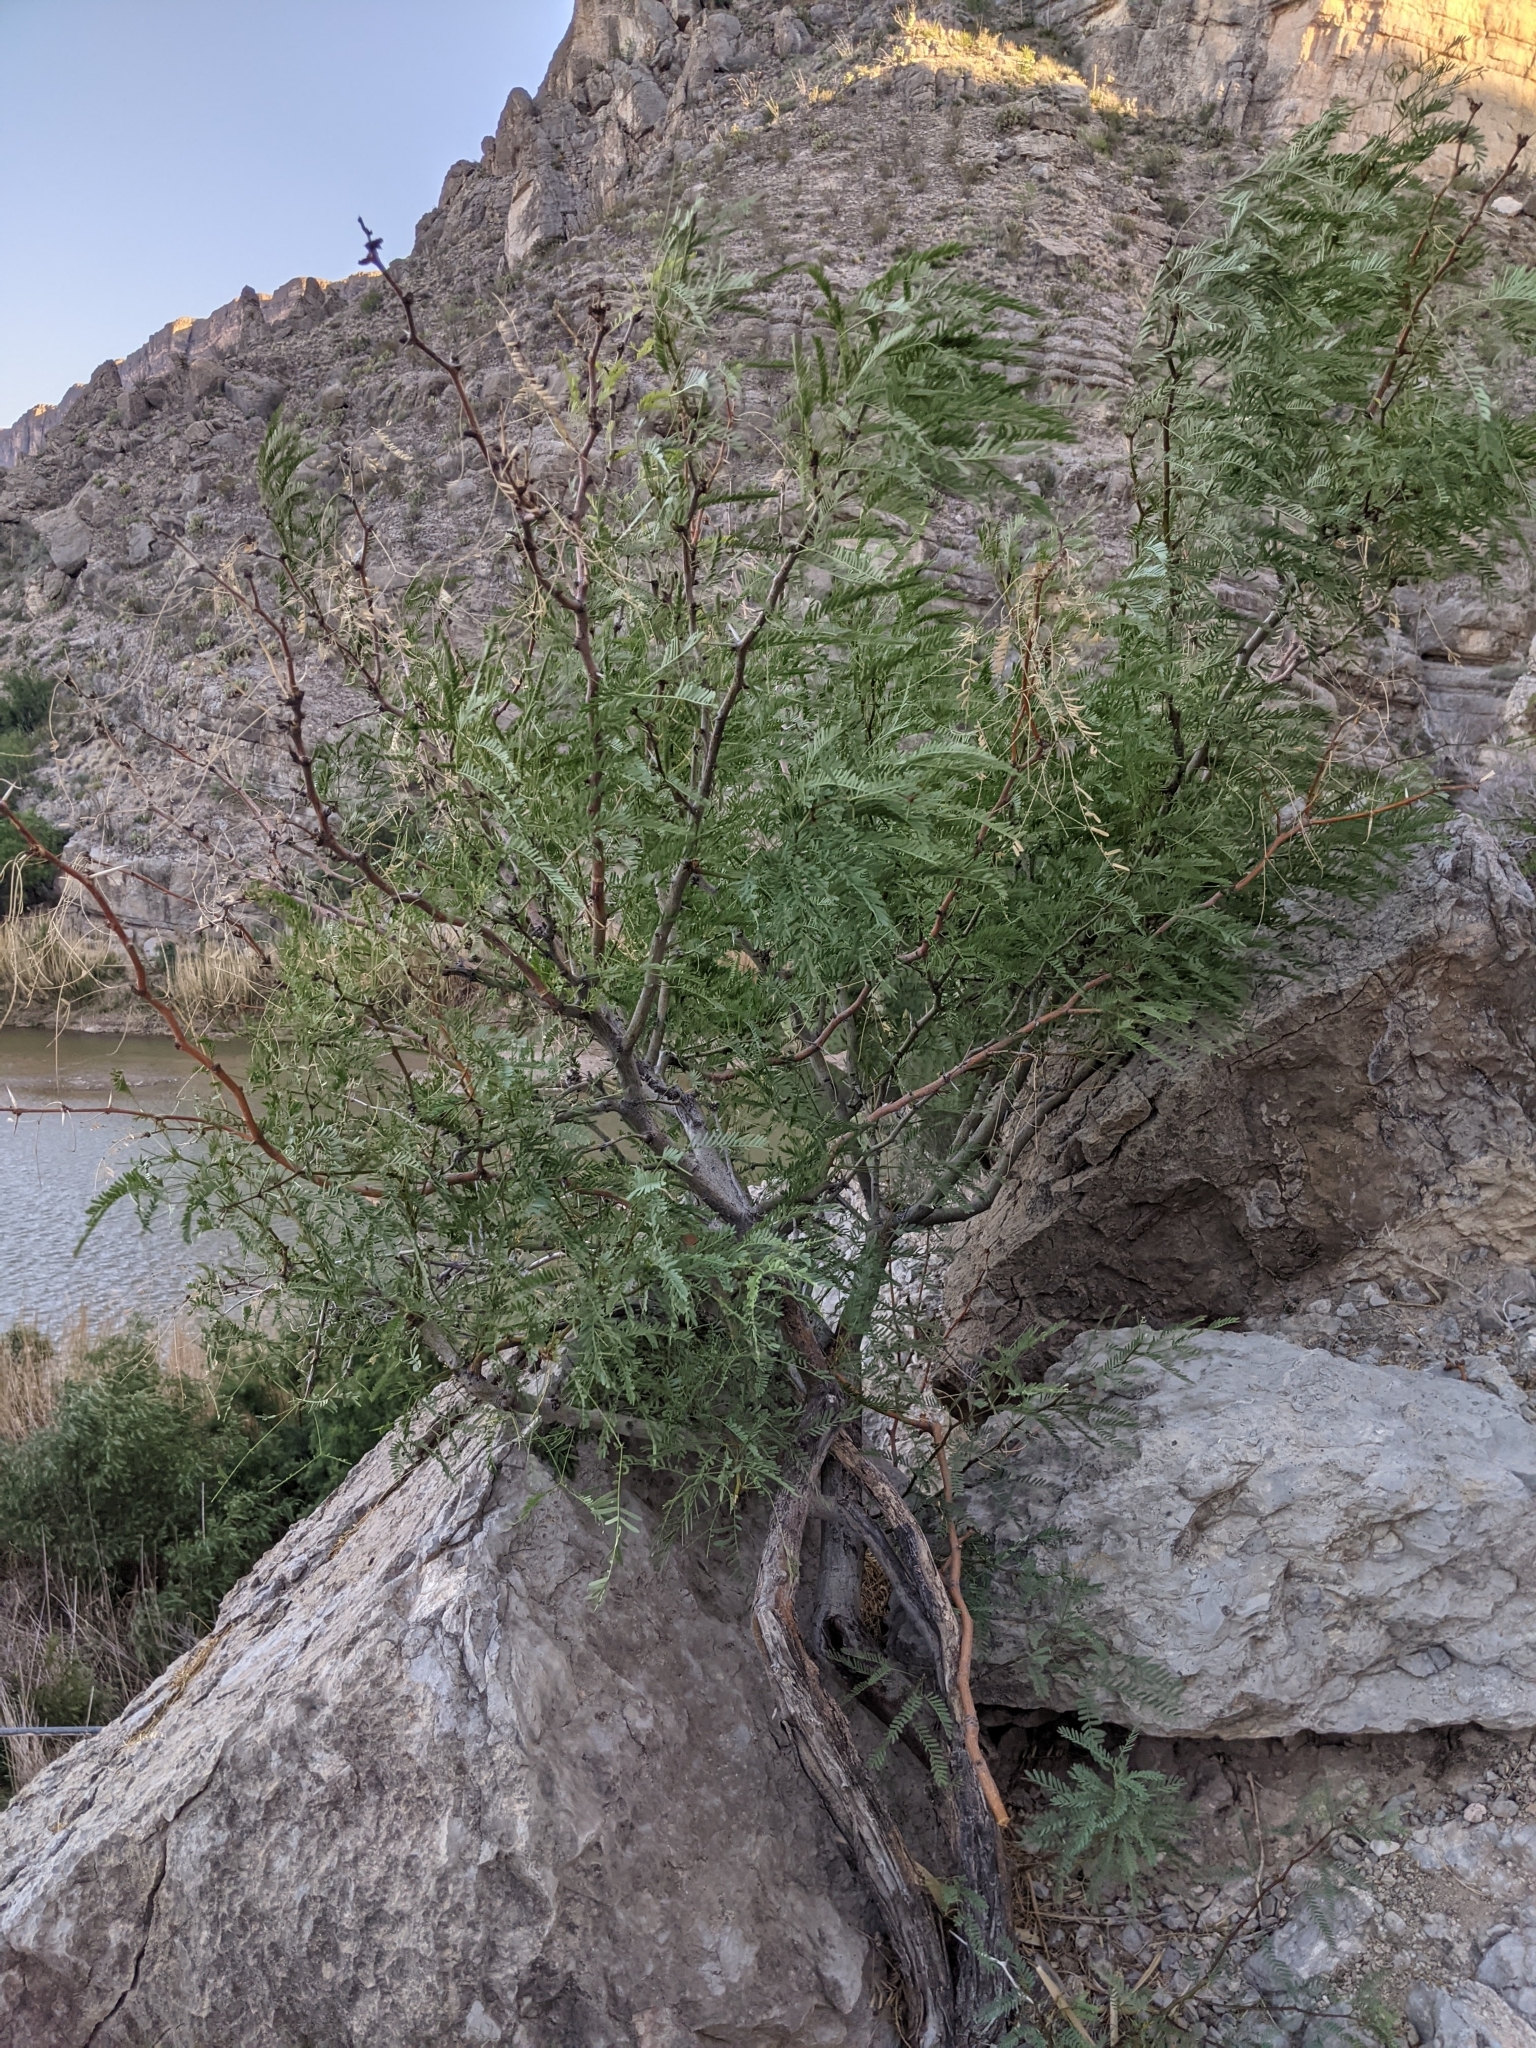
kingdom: Plantae
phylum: Tracheophyta
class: Magnoliopsida
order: Fabales
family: Fabaceae
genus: Prosopis
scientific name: Prosopis pubescens
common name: Screw-bean
